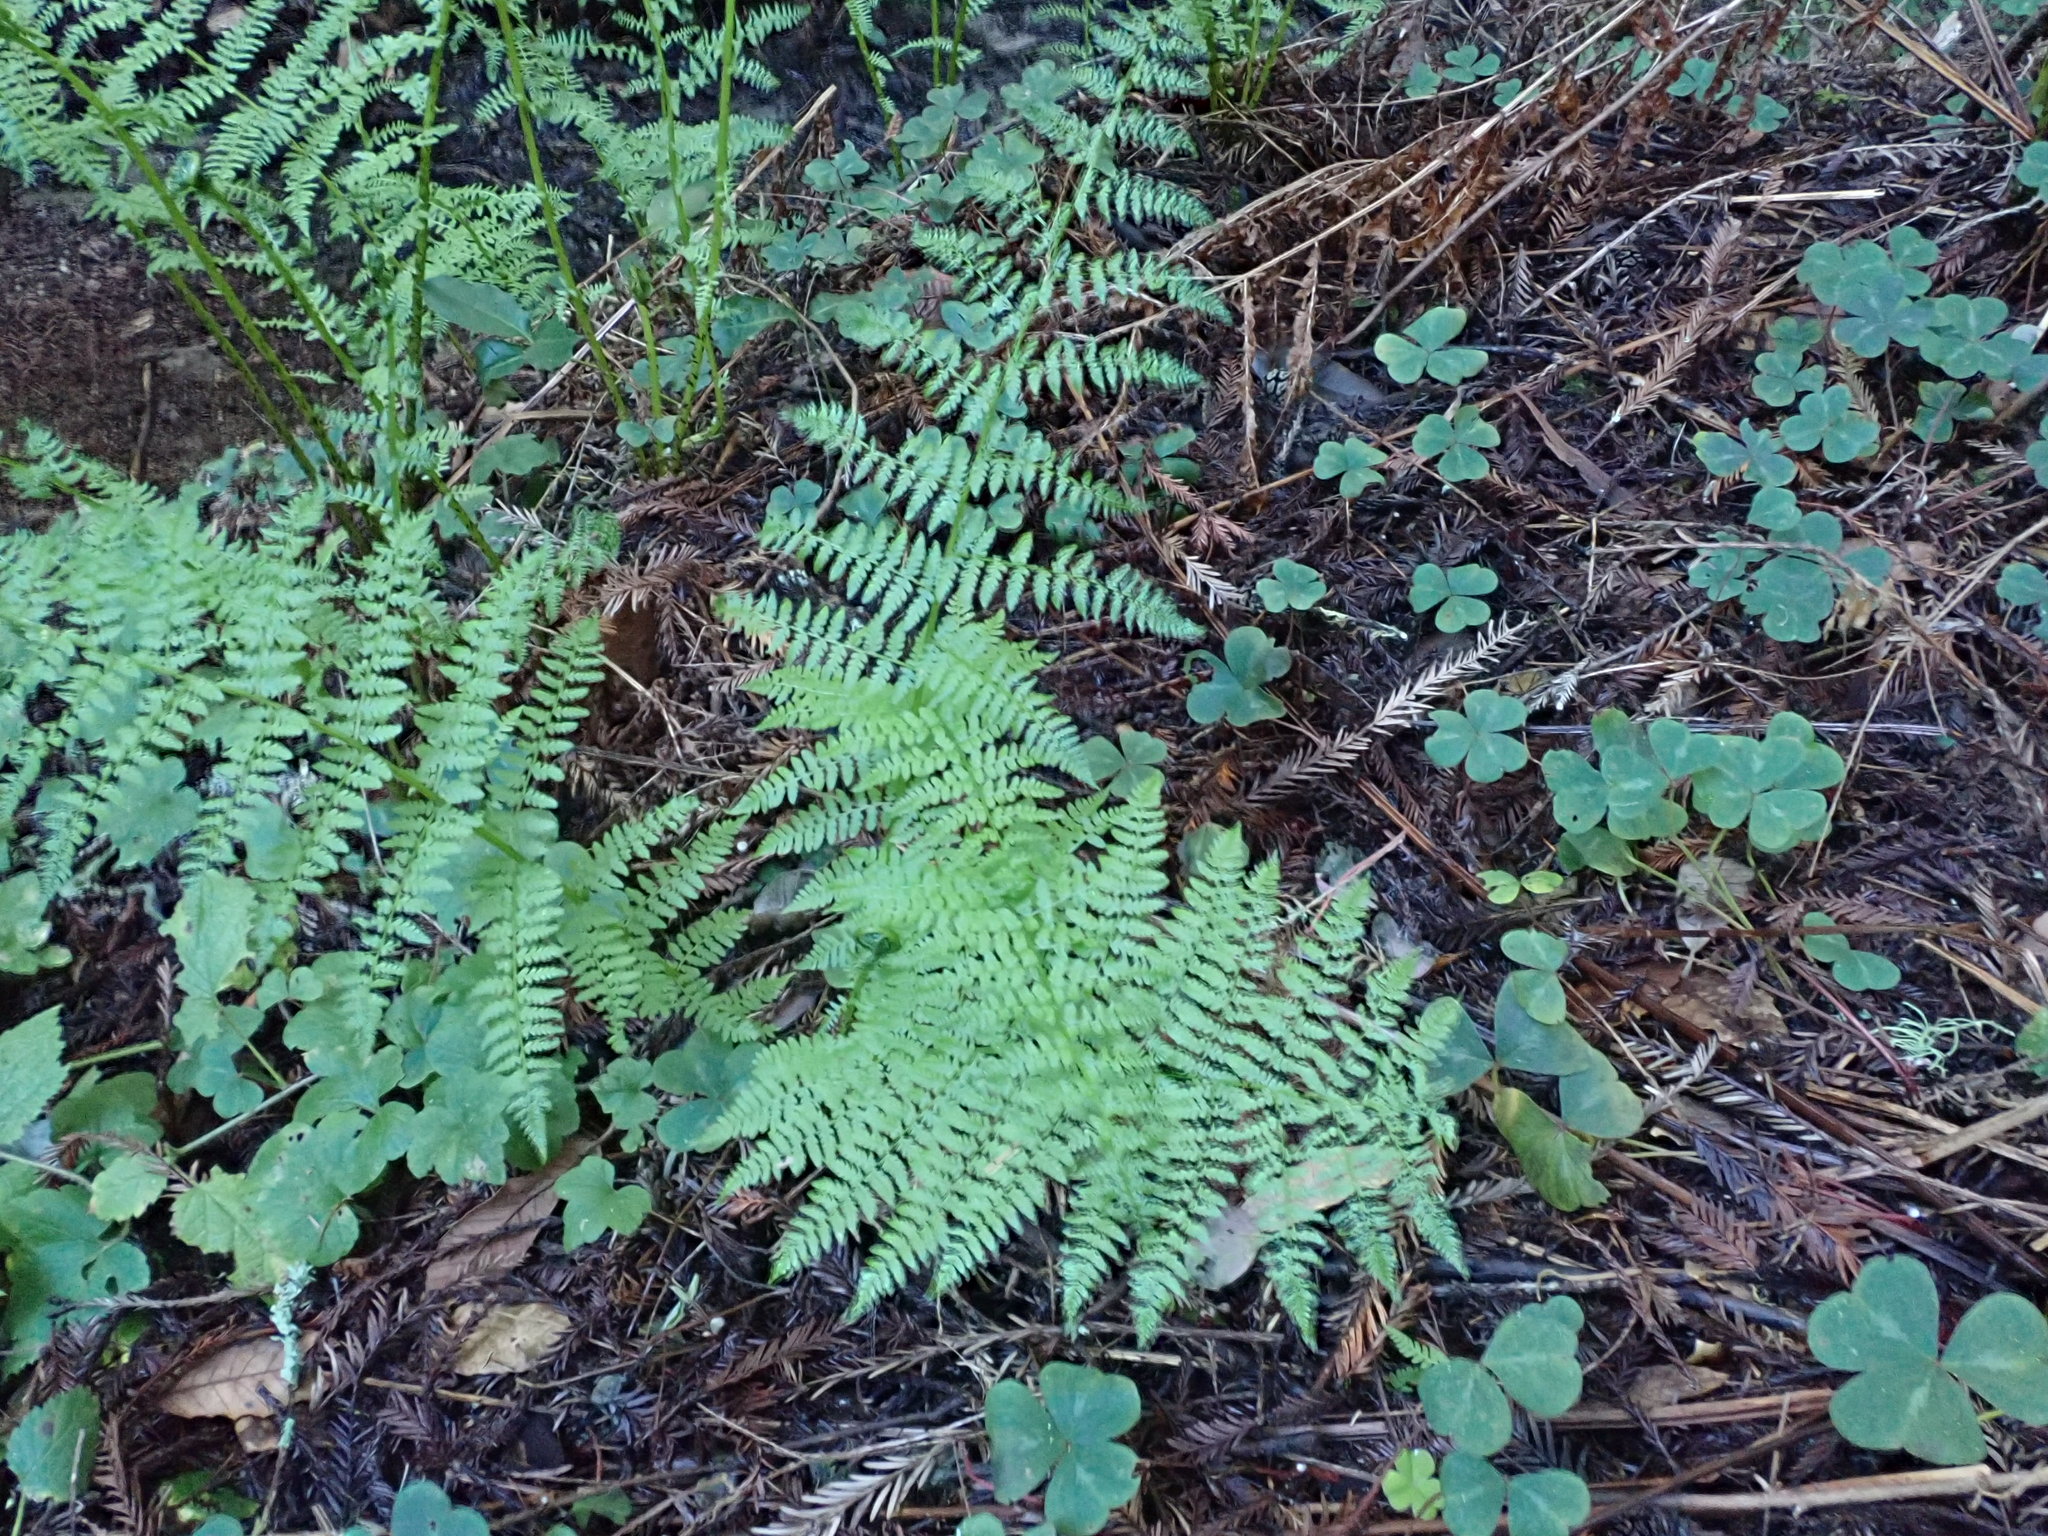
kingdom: Plantae
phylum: Tracheophyta
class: Polypodiopsida
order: Polypodiales
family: Athyriaceae
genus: Athyrium
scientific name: Athyrium filix-femina
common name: Lady fern
